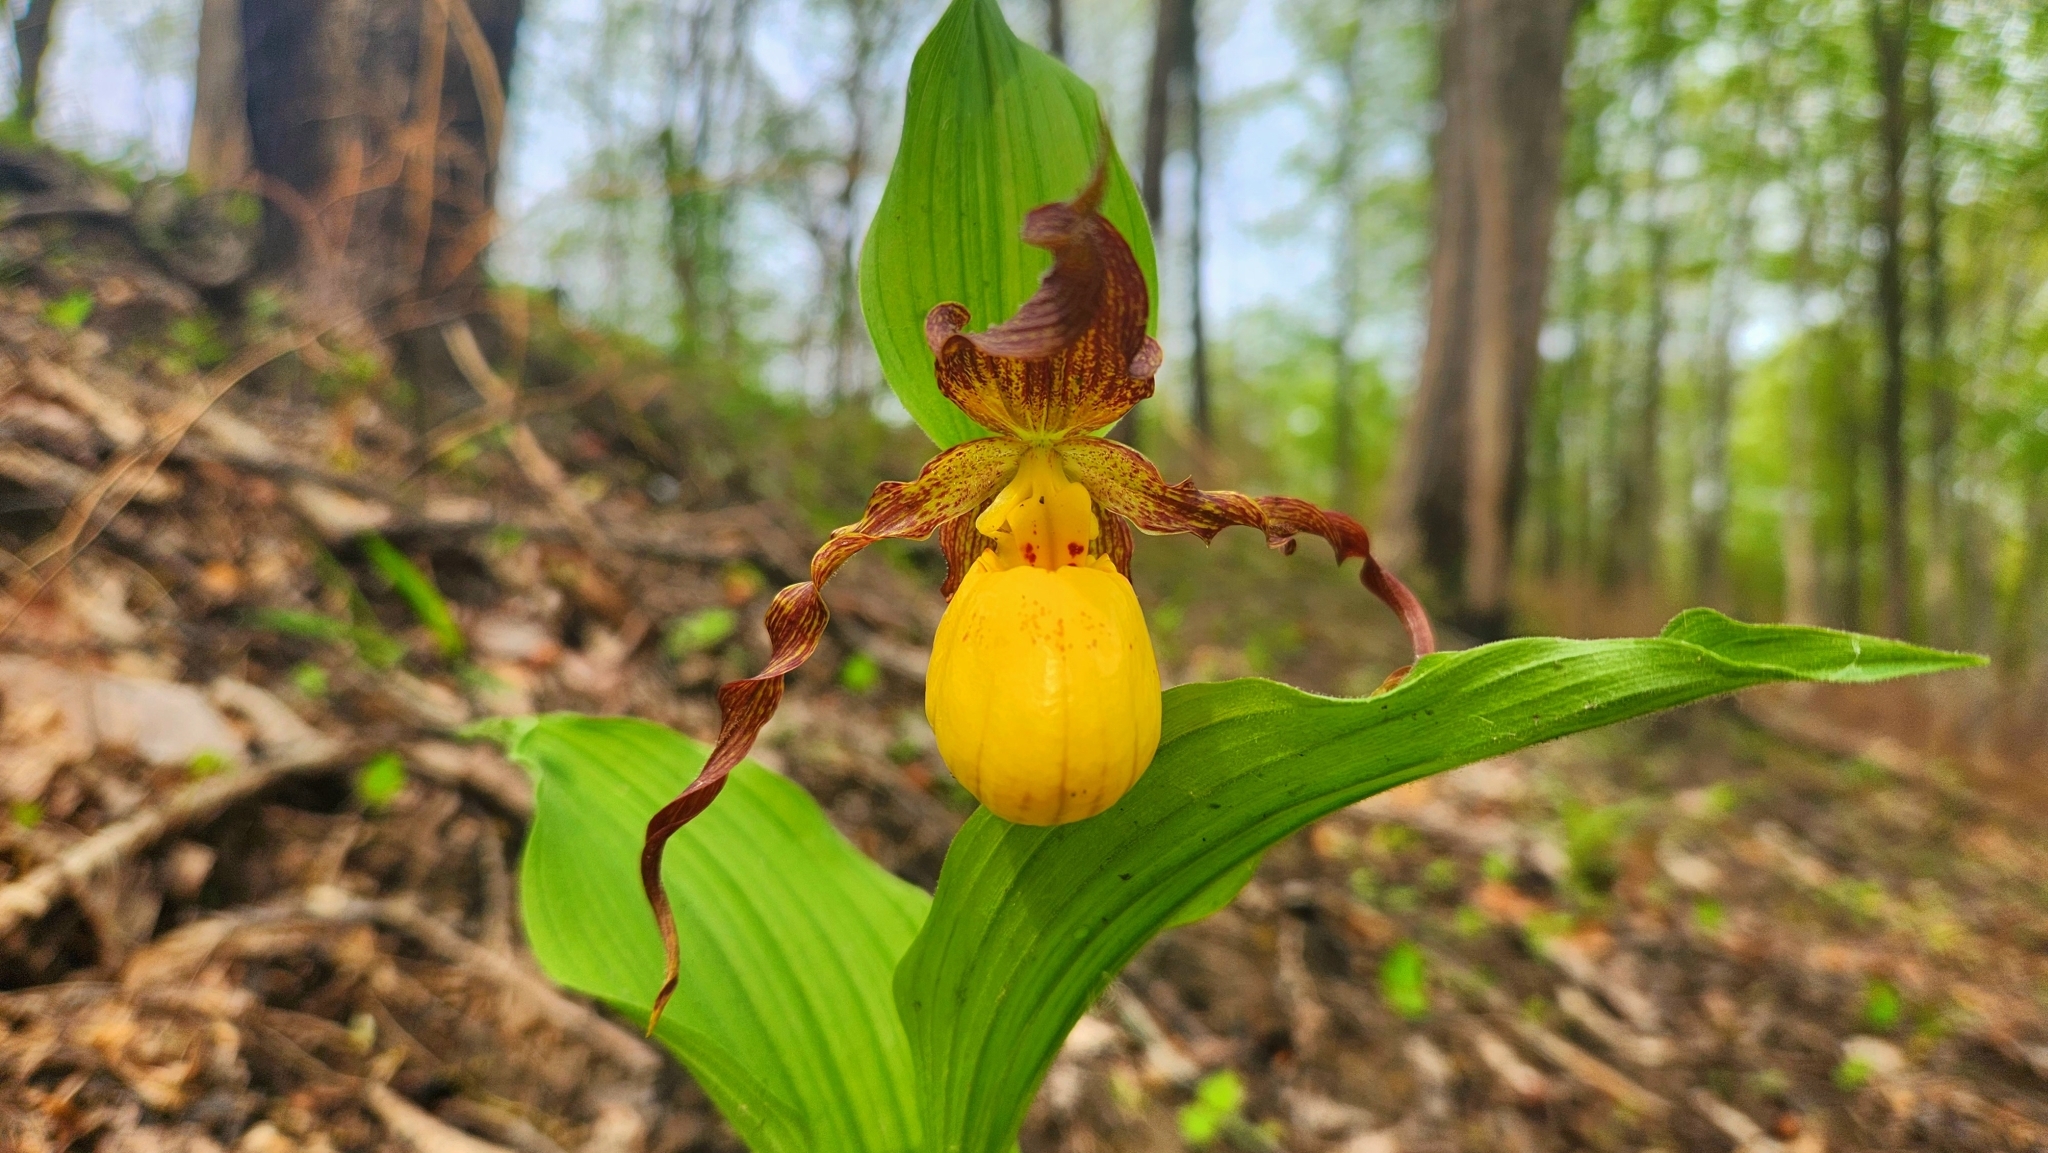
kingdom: Plantae
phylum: Tracheophyta
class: Liliopsida
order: Asparagales
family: Orchidaceae
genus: Cypripedium
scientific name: Cypripedium parviflorum
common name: American yellow lady's-slipper
